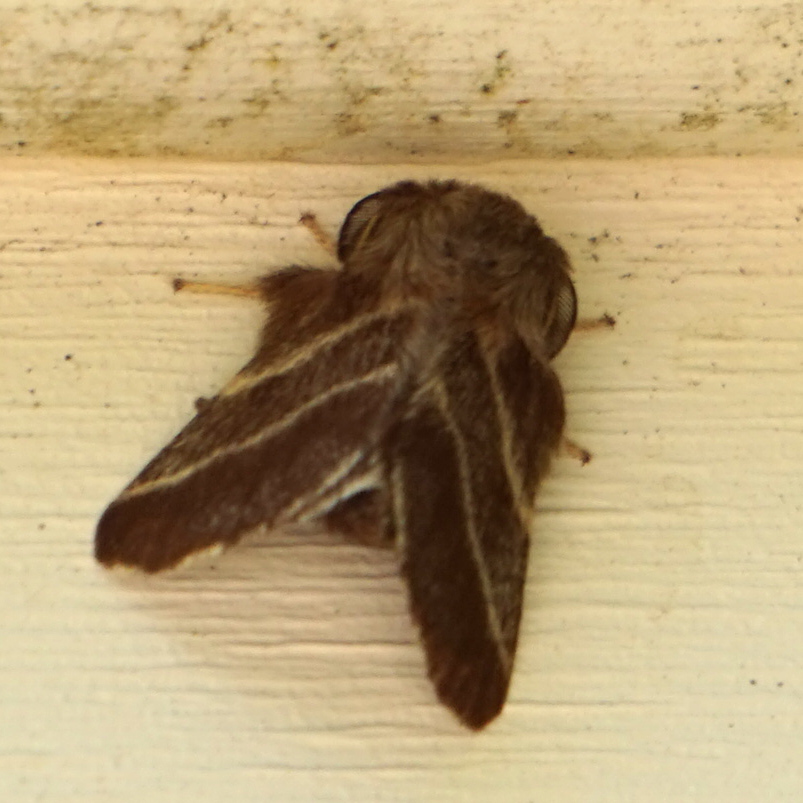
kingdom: Animalia
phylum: Arthropoda
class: Insecta
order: Lepidoptera
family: Lasiocampidae
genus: Malacosoma
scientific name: Malacosoma americana
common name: Eastern tent caterpillar moth
